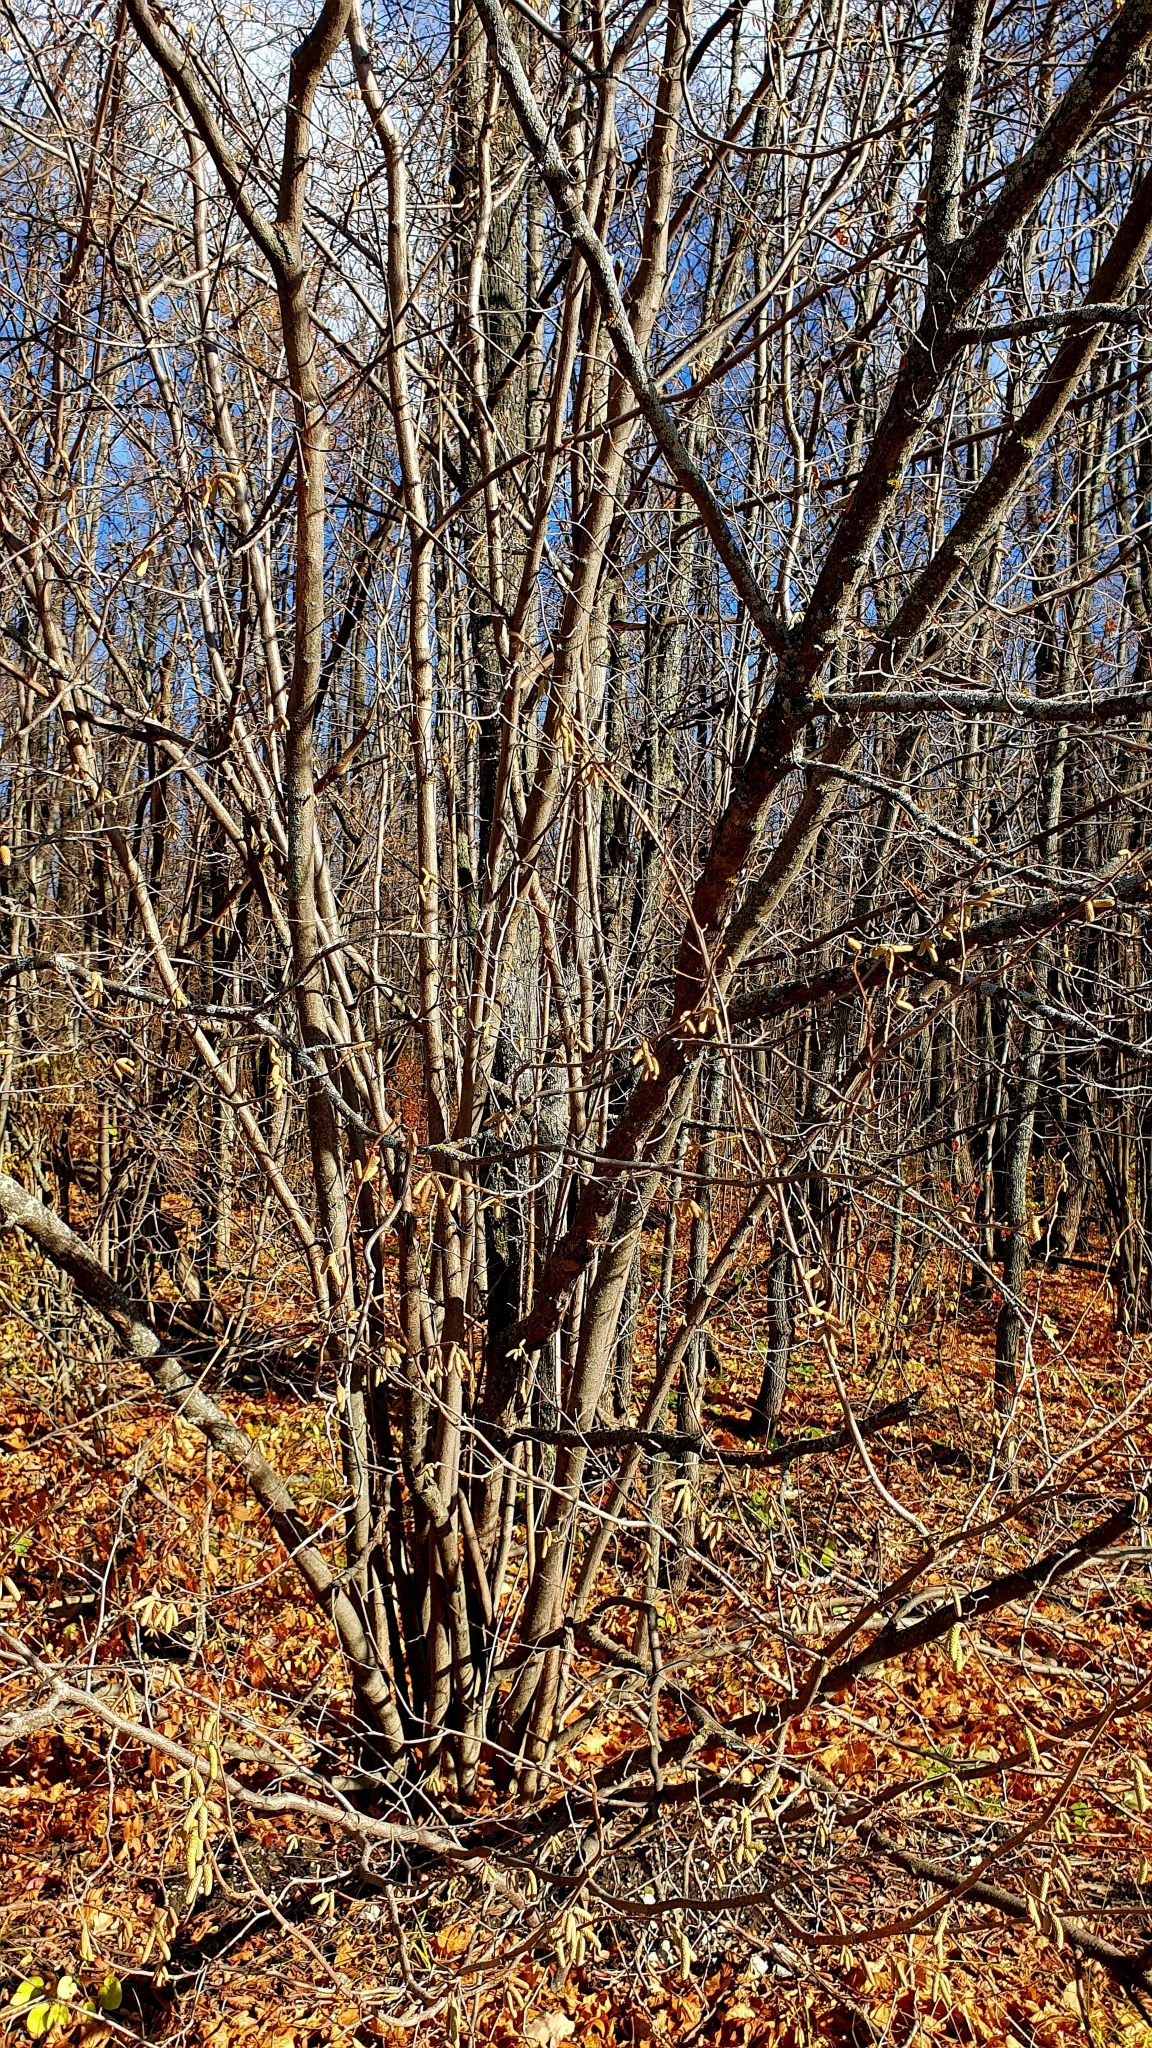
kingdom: Plantae
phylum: Tracheophyta
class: Magnoliopsida
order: Fagales
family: Betulaceae
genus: Corylus
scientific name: Corylus avellana
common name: European hazel
